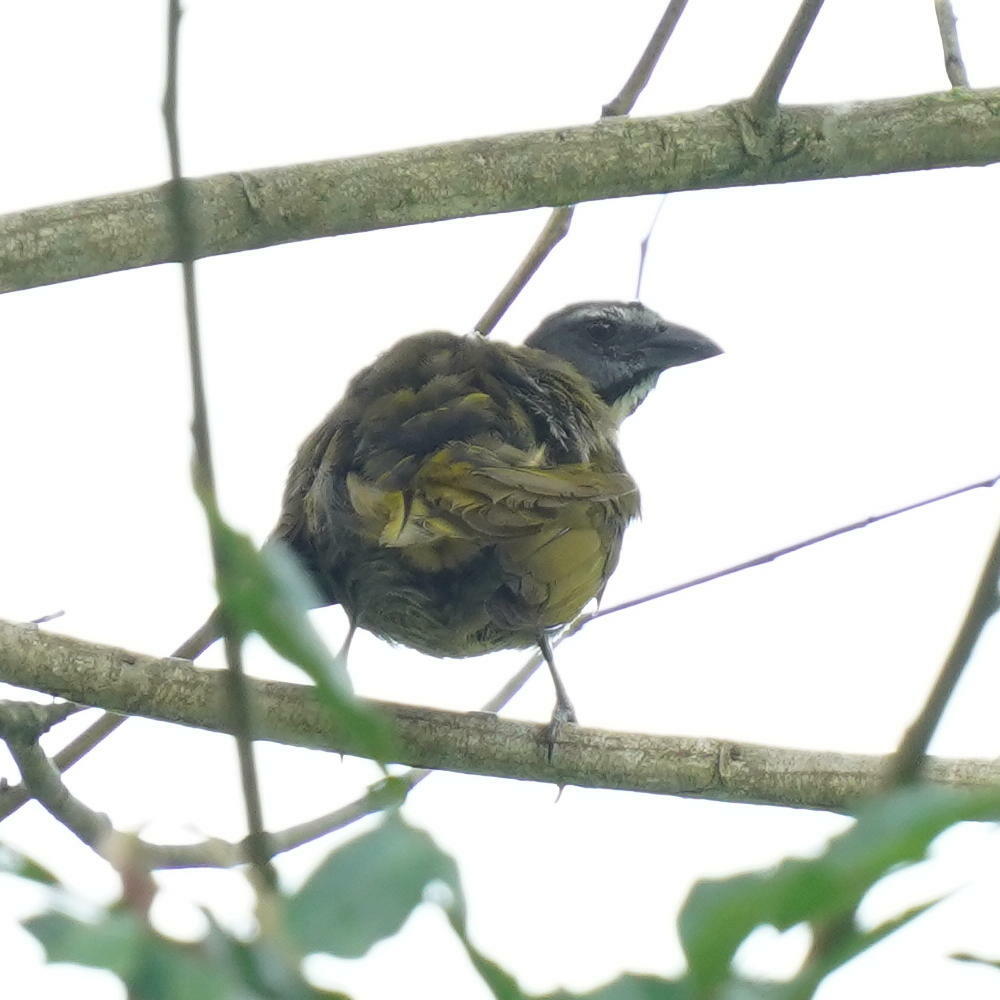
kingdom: Animalia
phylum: Chordata
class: Aves
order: Passeriformes
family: Thraupidae
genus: Saltator
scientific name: Saltator maximus
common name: Buff-throated saltator
